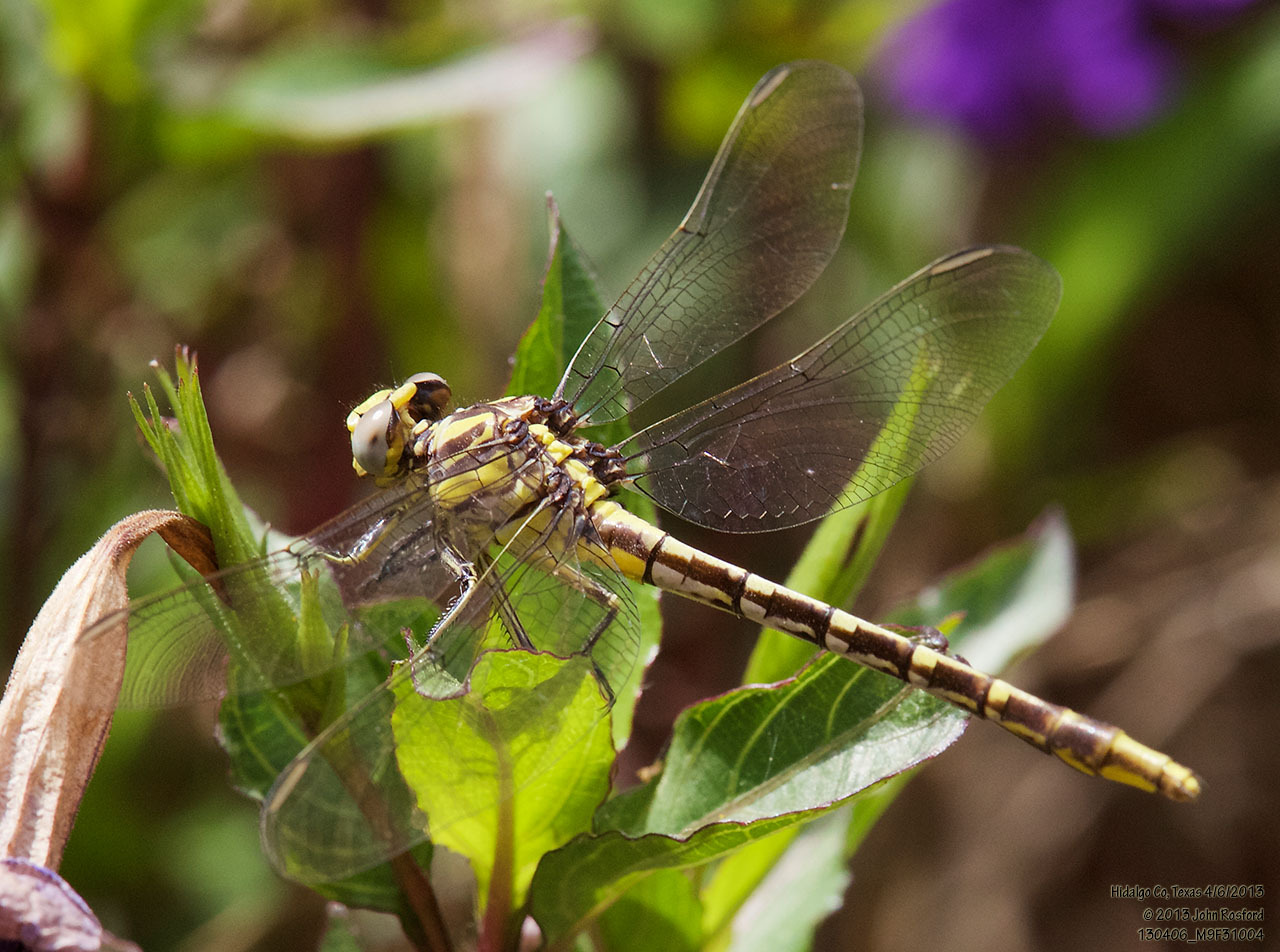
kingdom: Animalia
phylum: Arthropoda
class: Insecta
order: Odonata
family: Gomphidae
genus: Phanogomphus
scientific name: Phanogomphus militaris
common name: Sulphur-tipped clubtail
